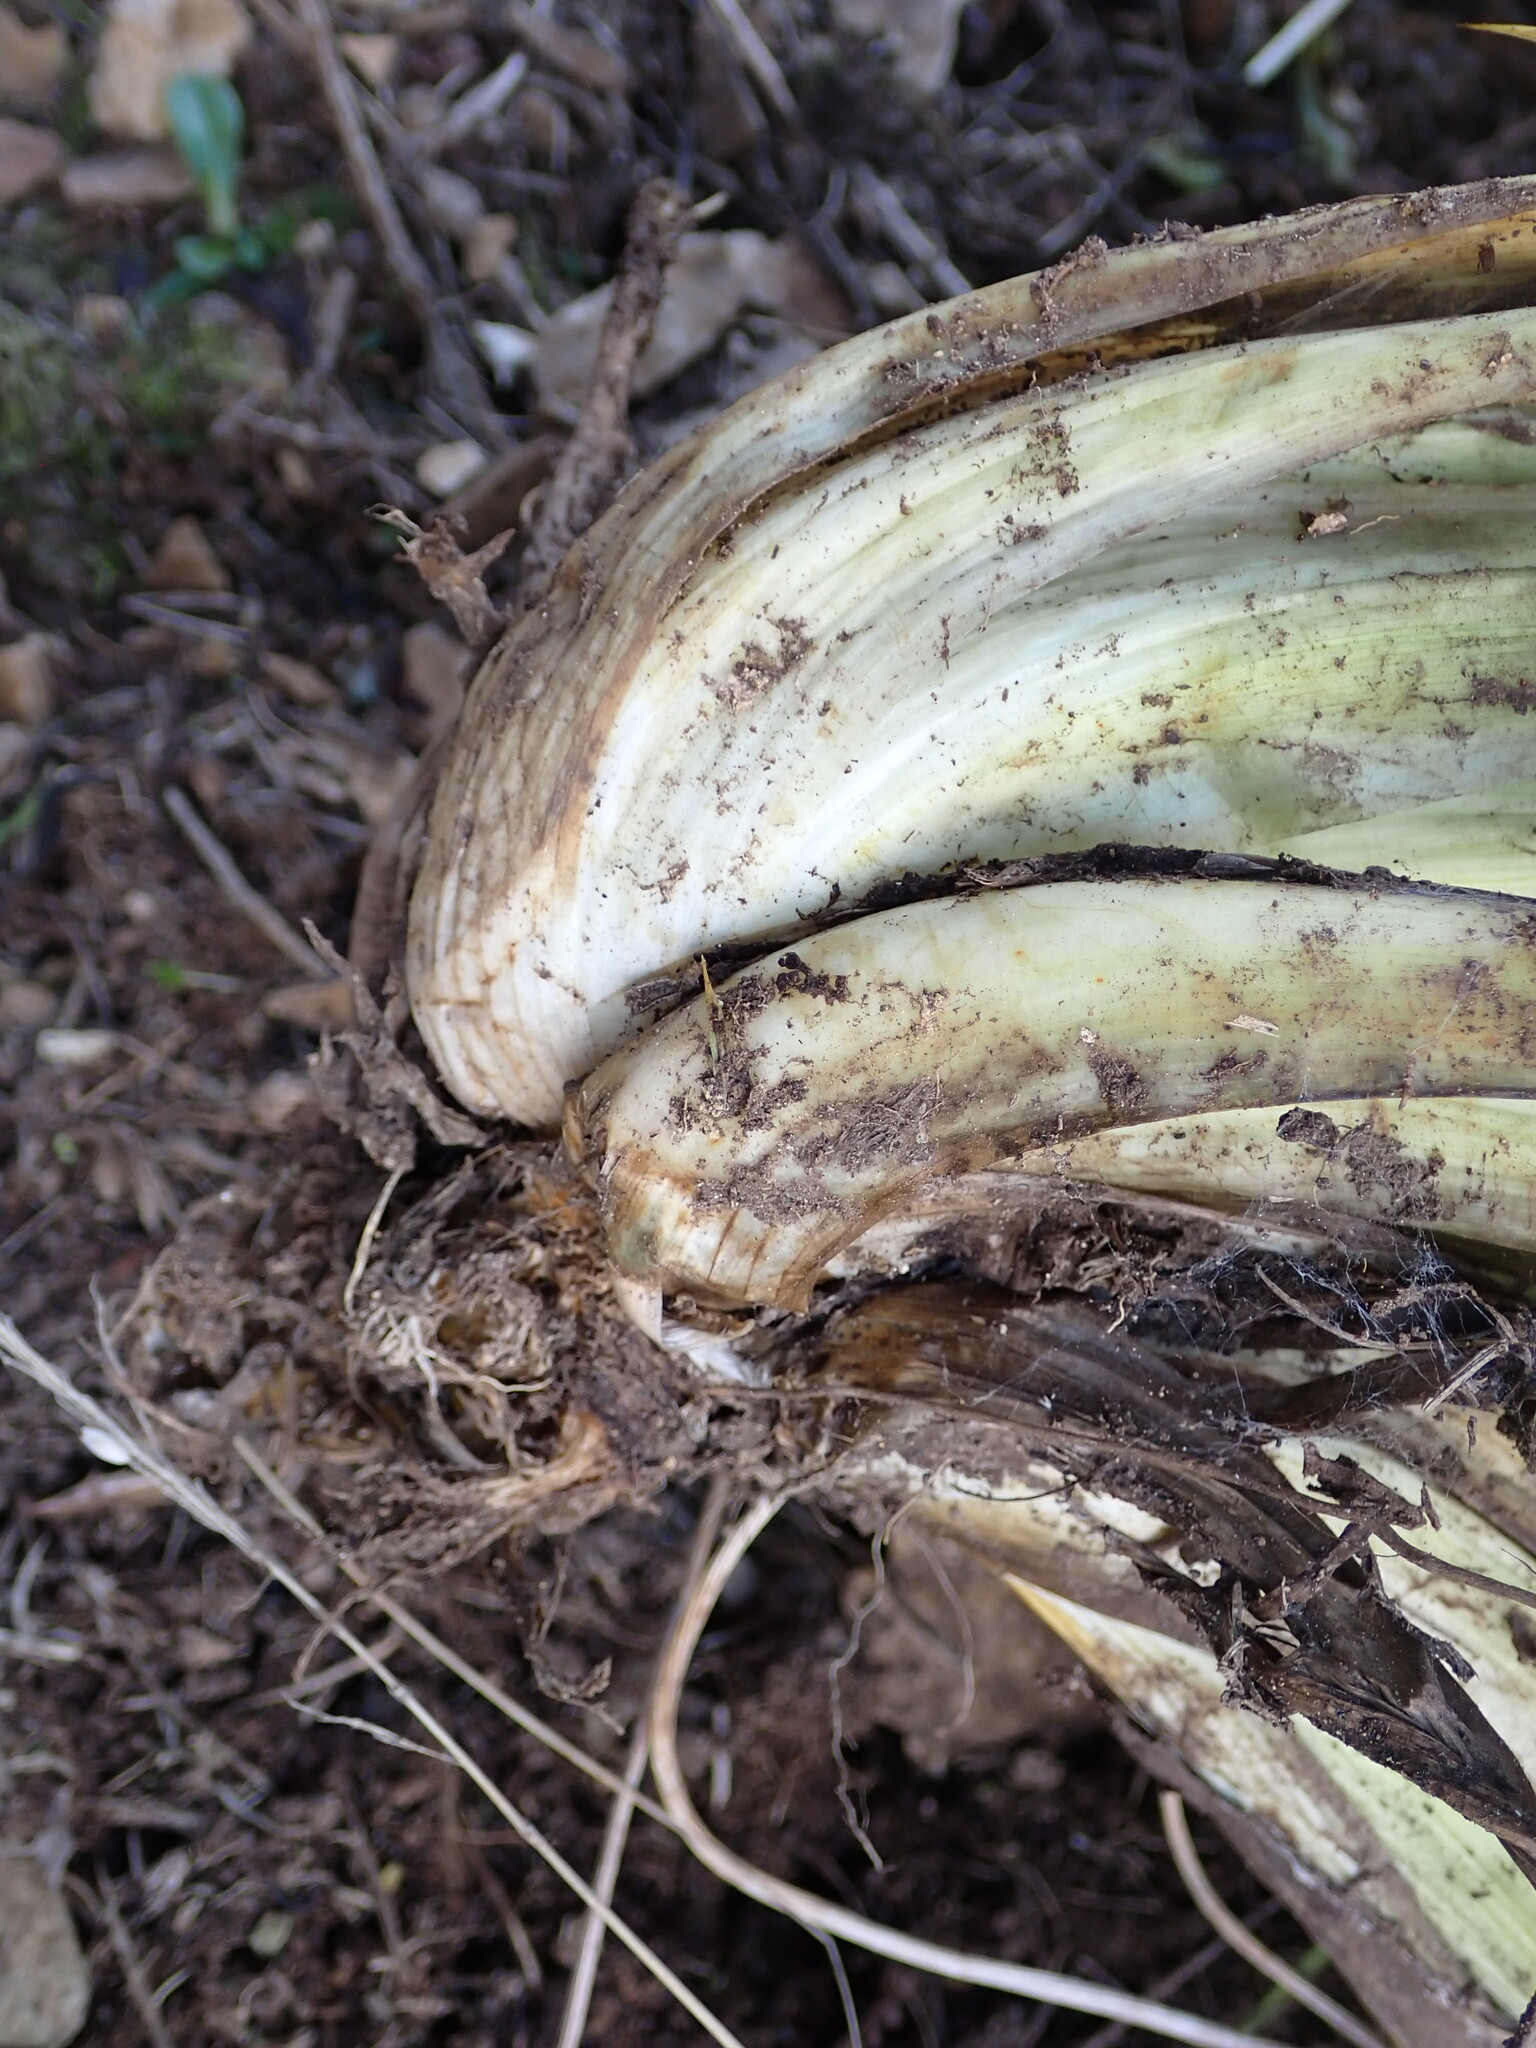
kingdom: Plantae
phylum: Tracheophyta
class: Magnoliopsida
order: Apiales
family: Apiaceae
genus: Aciphylla
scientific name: Aciphylla squarrosa
